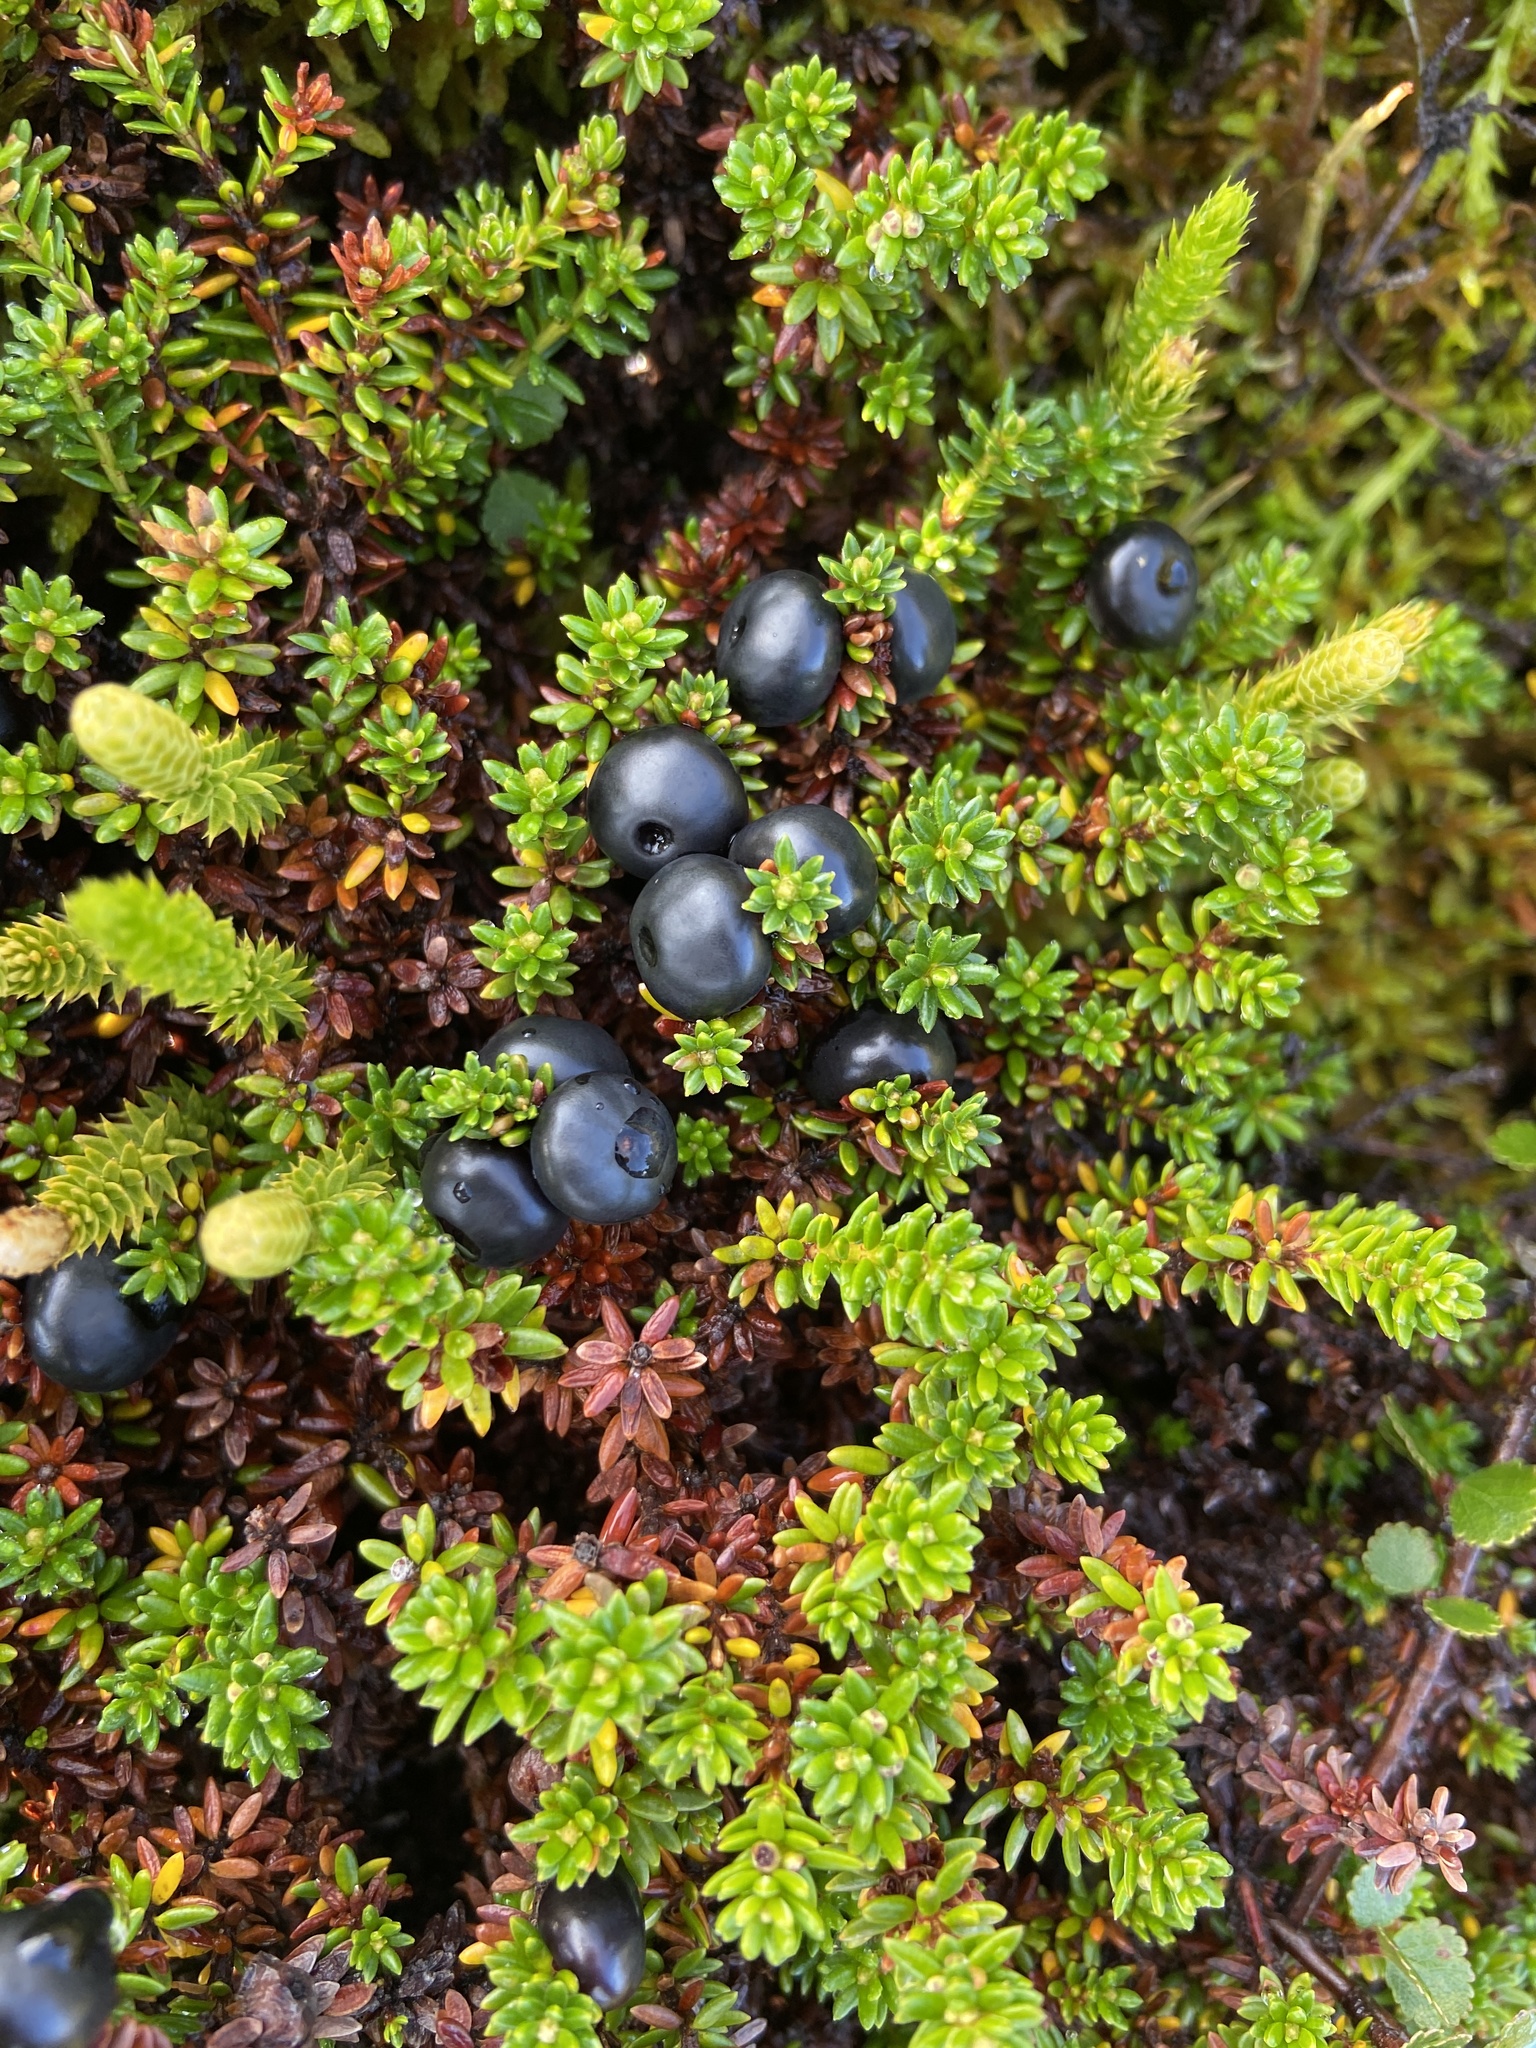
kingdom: Plantae
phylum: Tracheophyta
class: Magnoliopsida
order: Ericales
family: Ericaceae
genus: Empetrum
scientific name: Empetrum hermaphroditum
